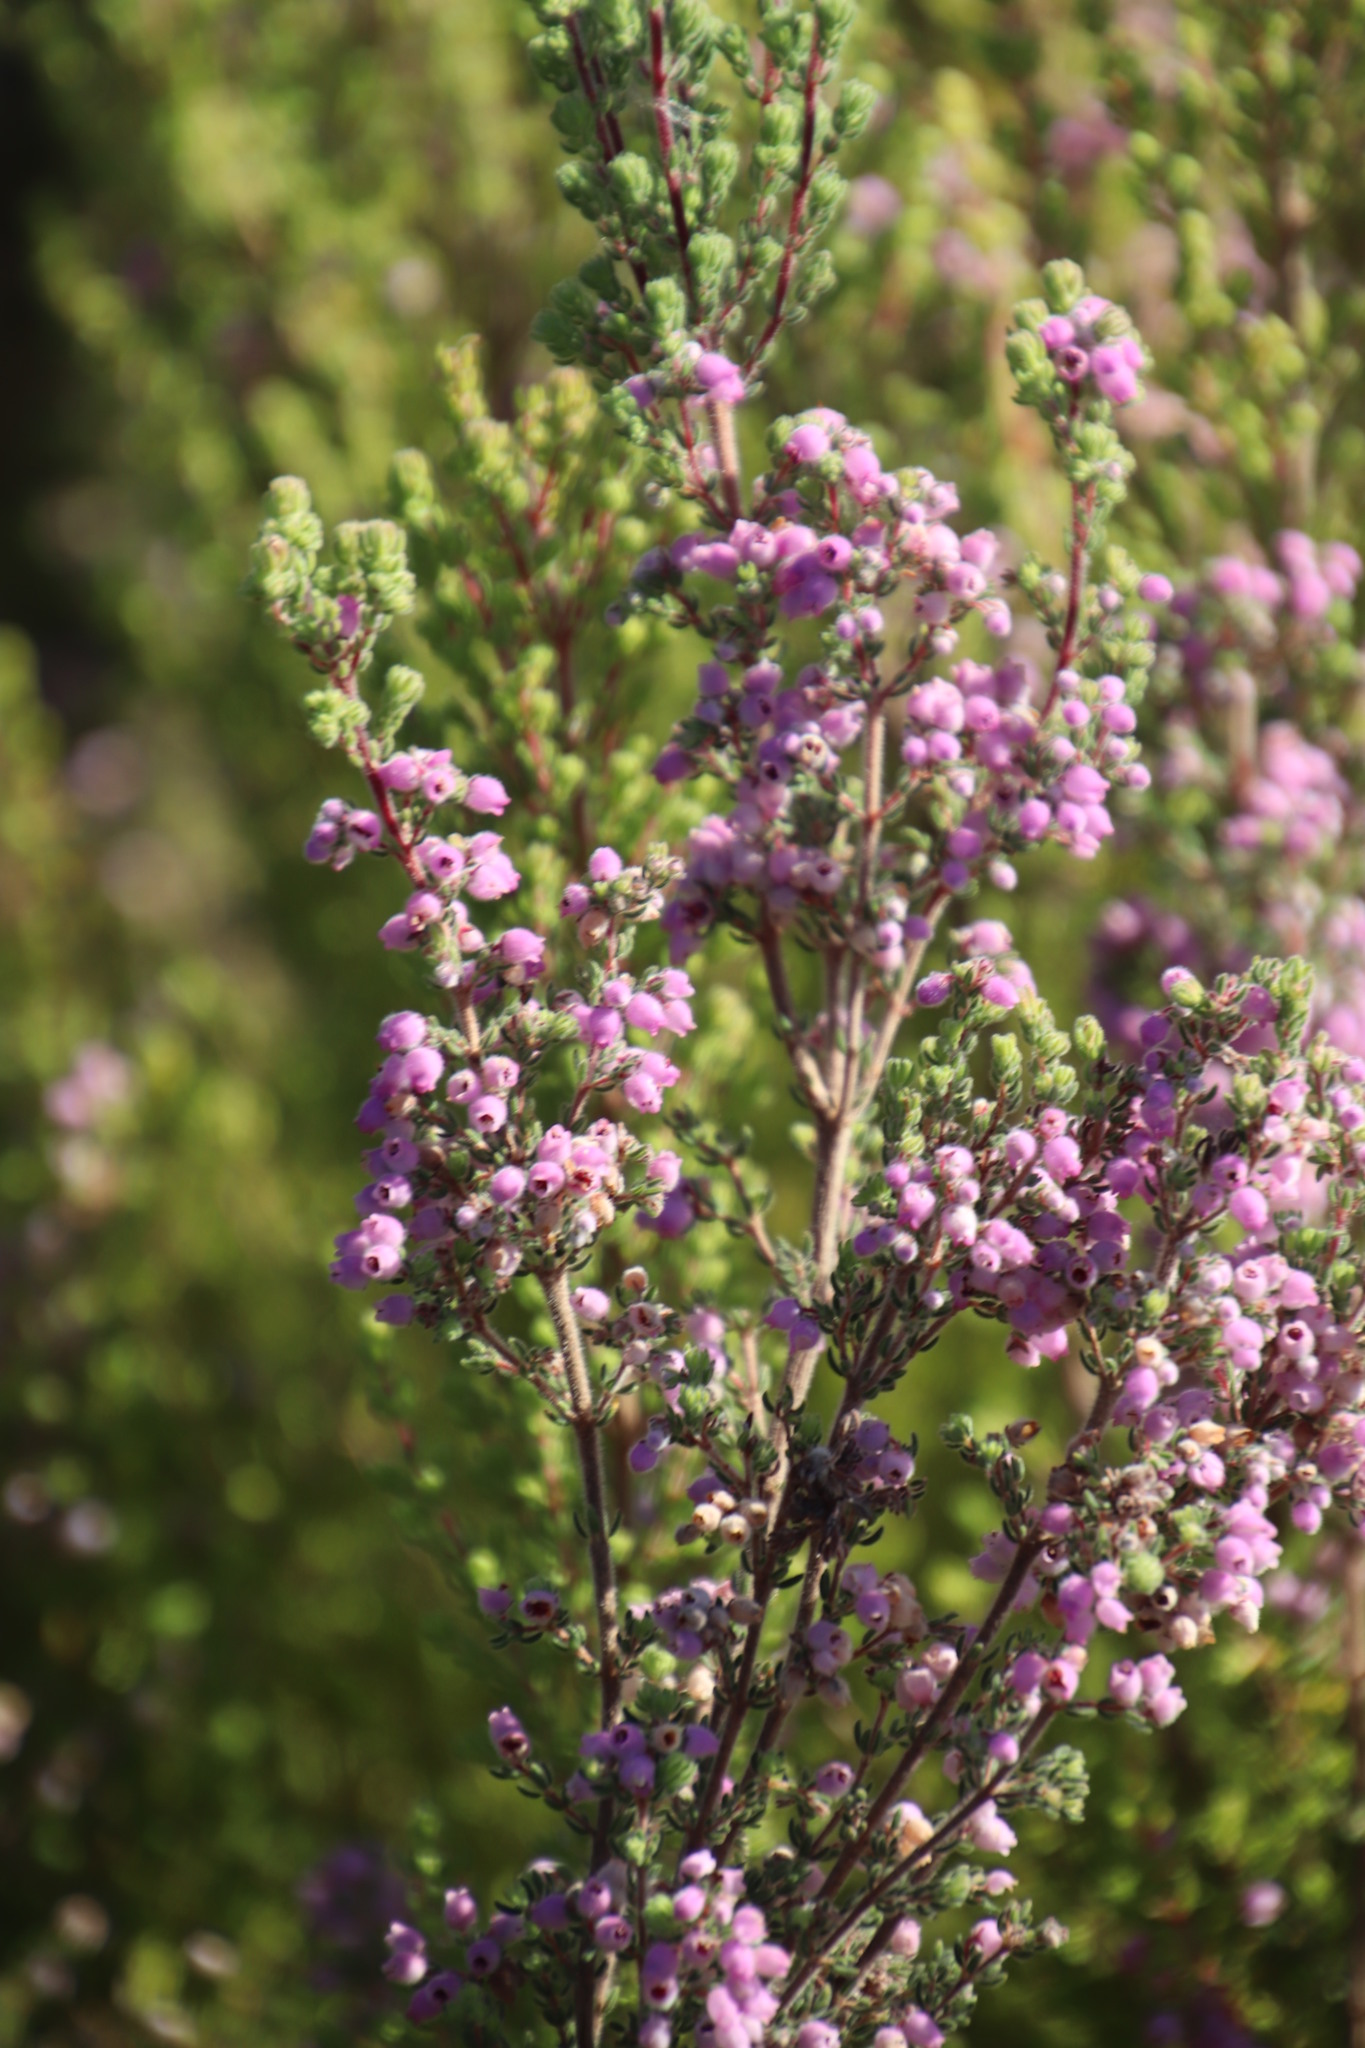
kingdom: Plantae
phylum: Tracheophyta
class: Magnoliopsida
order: Ericales
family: Ericaceae
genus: Erica
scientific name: Erica hirtiflora
